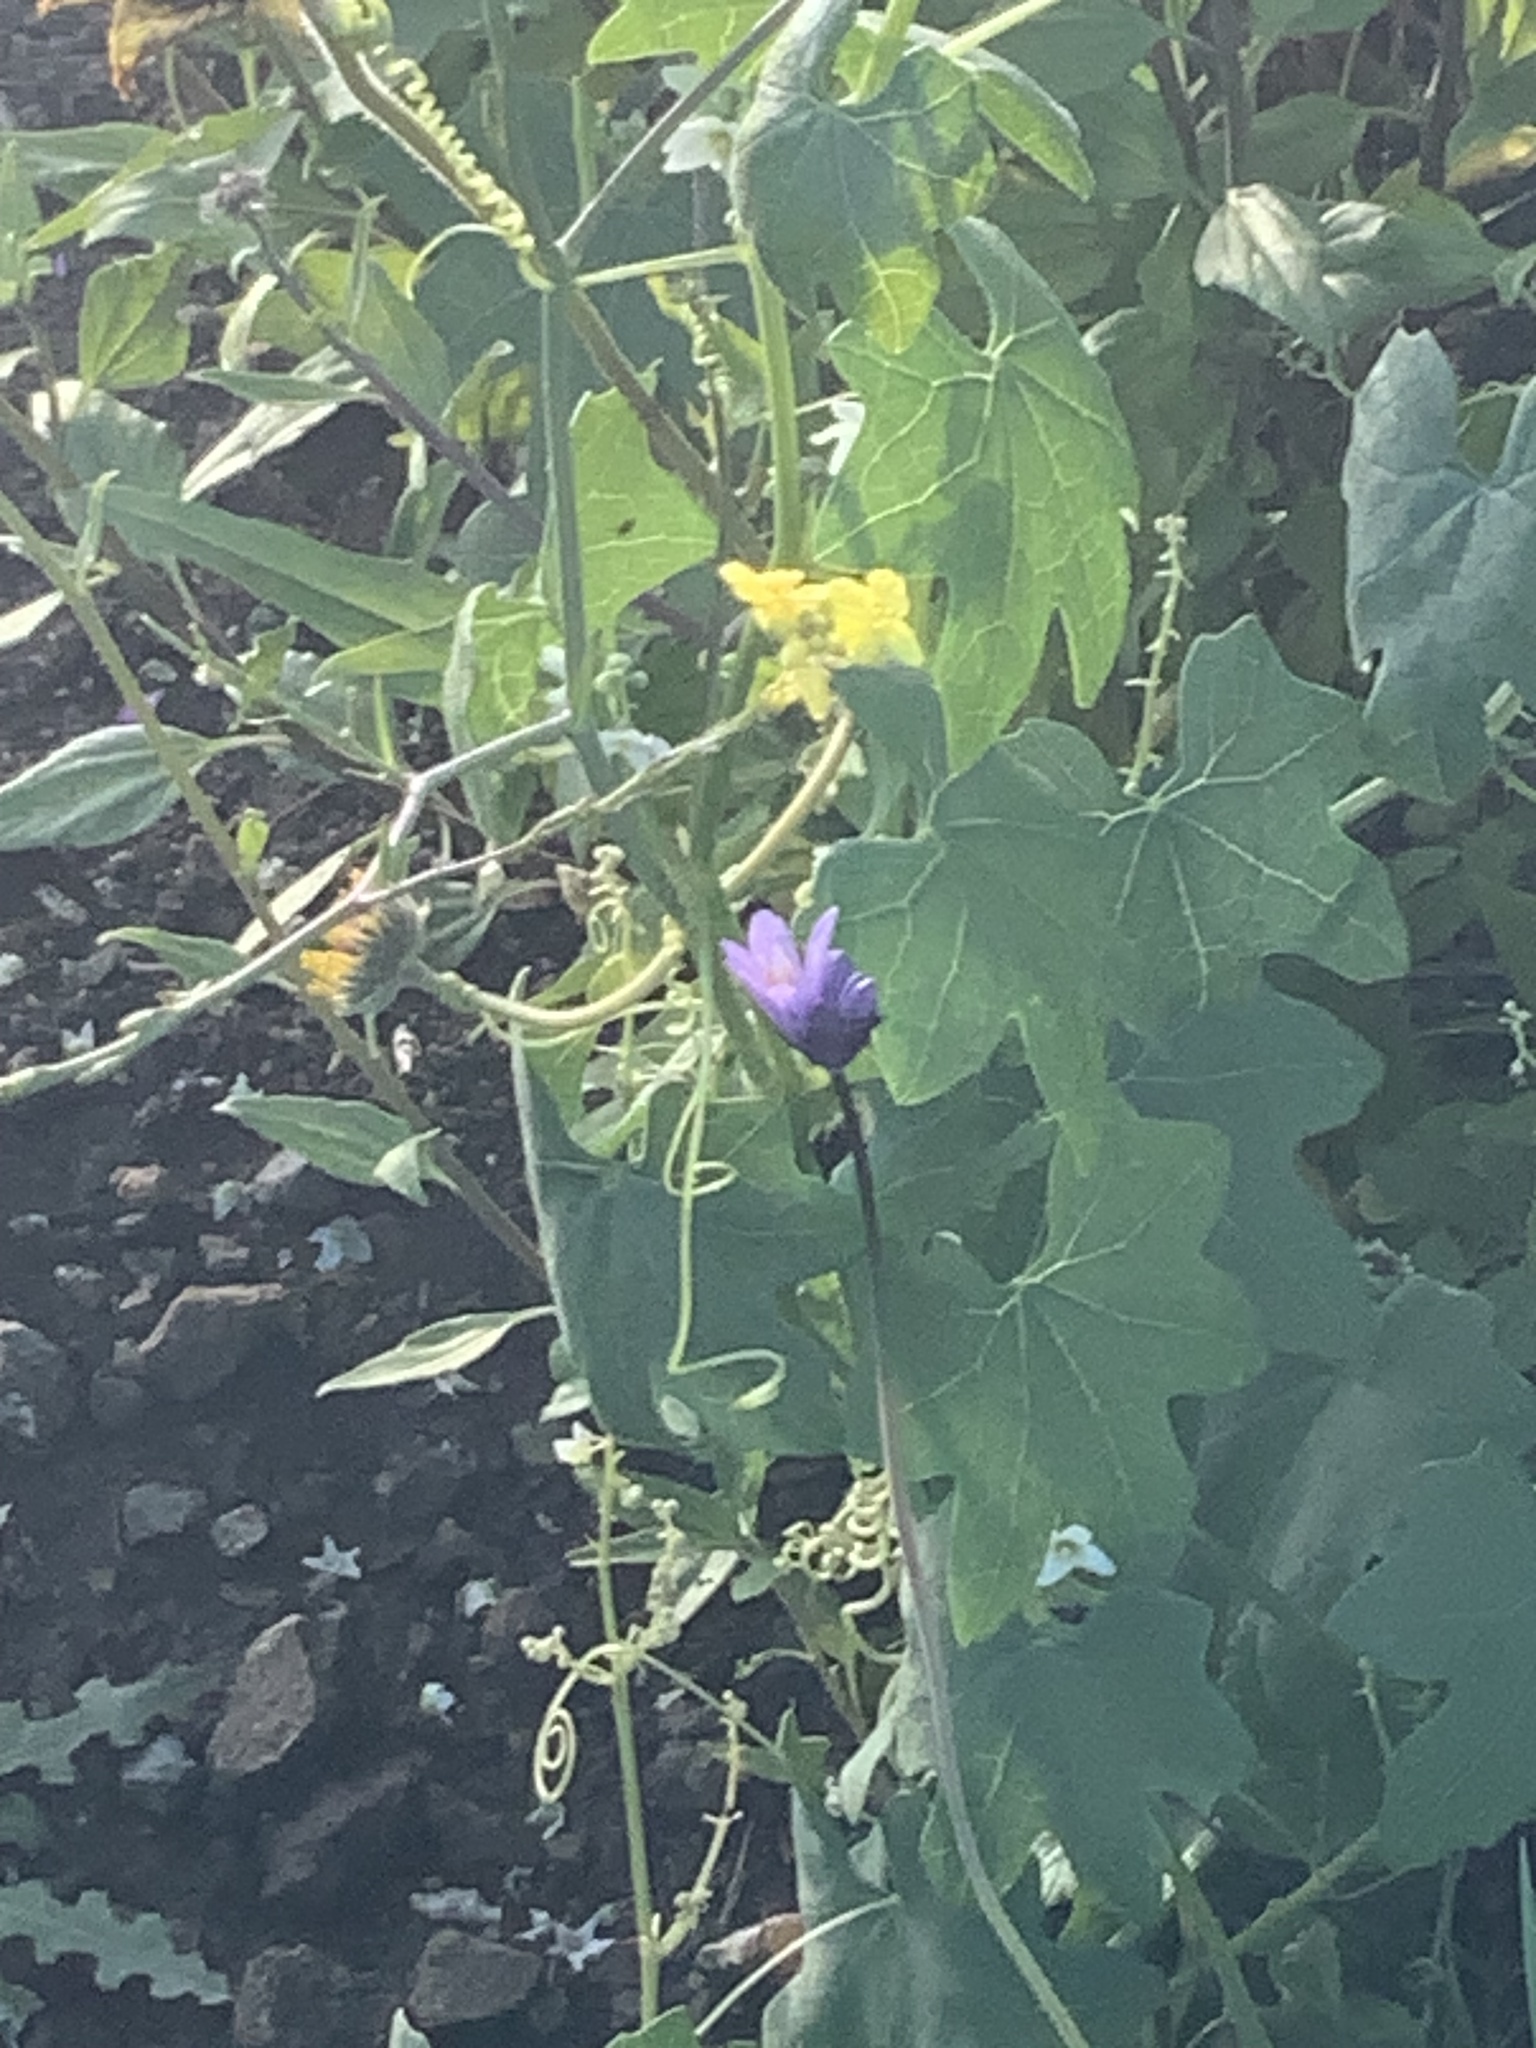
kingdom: Plantae
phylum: Tracheophyta
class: Liliopsida
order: Asparagales
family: Asparagaceae
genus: Dipterostemon
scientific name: Dipterostemon capitatus
